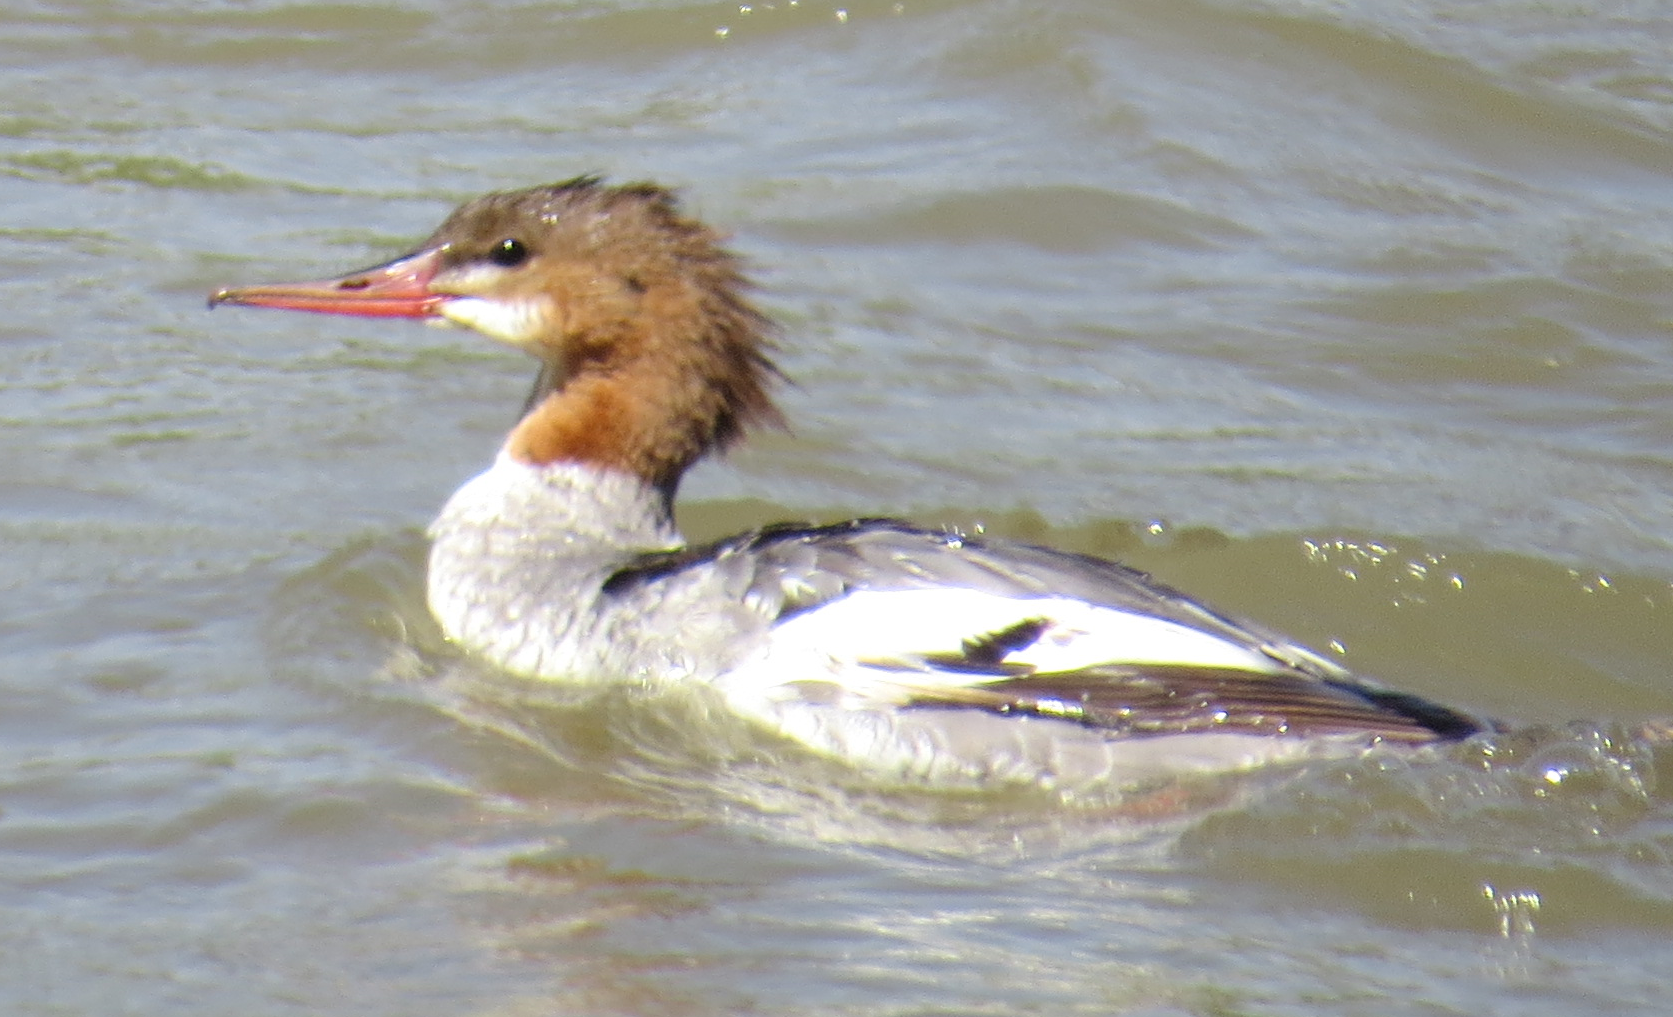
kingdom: Animalia
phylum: Chordata
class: Aves
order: Anseriformes
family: Anatidae
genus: Mergus
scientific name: Mergus merganser
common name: Common merganser
